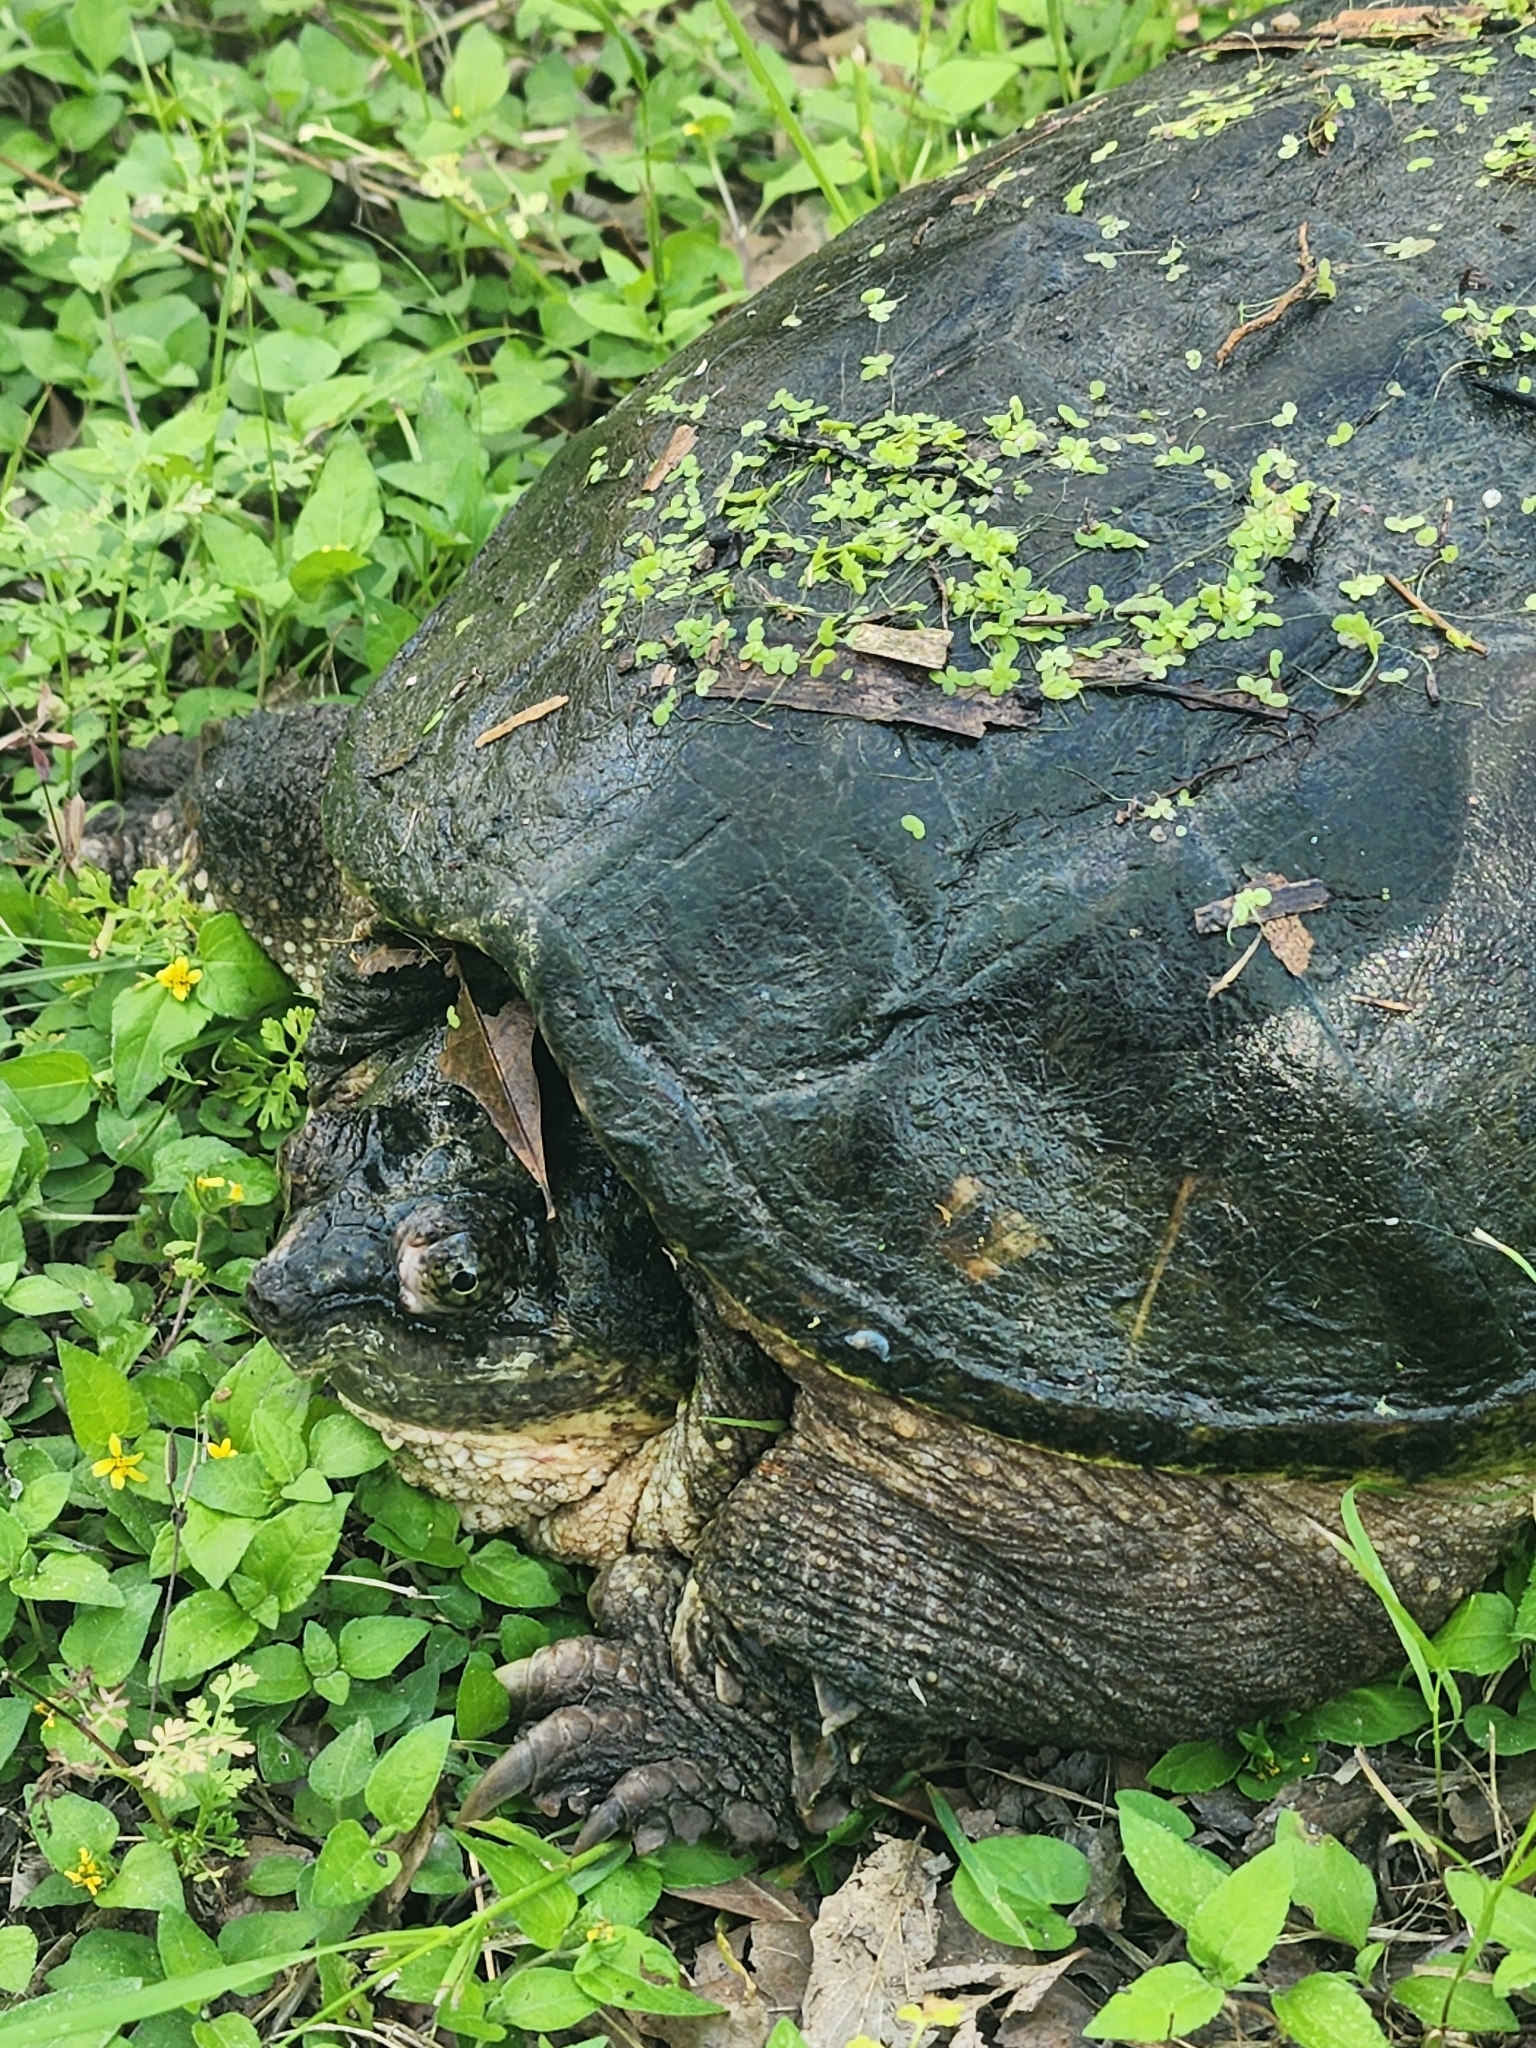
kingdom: Animalia
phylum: Chordata
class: Testudines
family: Chelydridae
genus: Chelydra
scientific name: Chelydra serpentina
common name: Common snapping turtle
